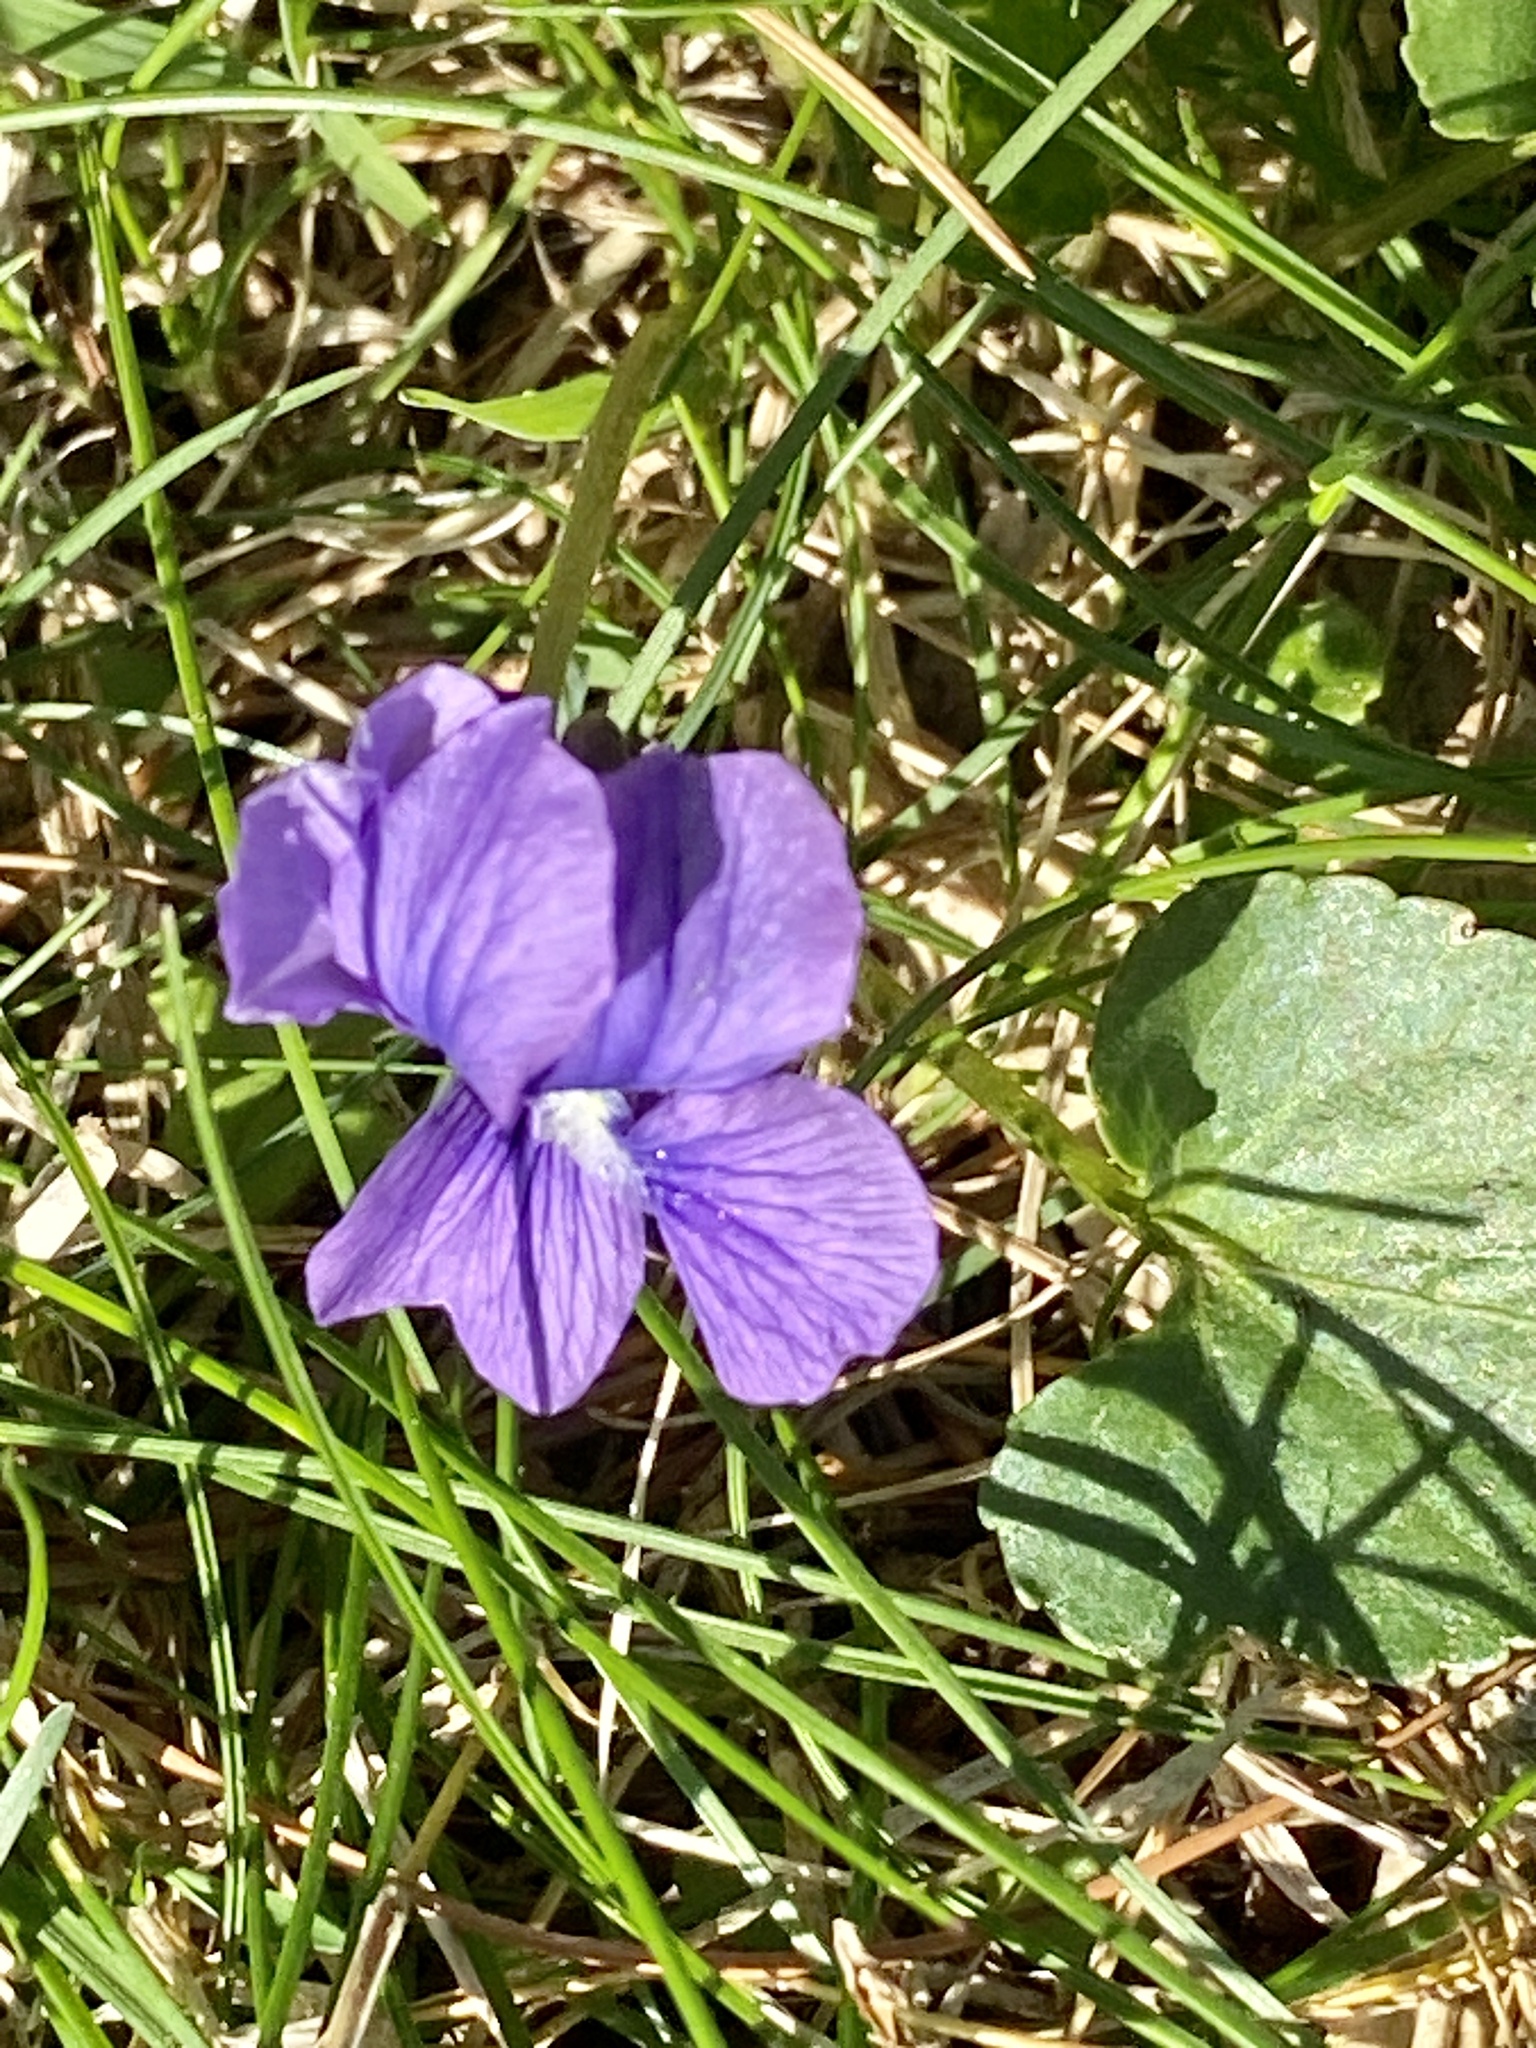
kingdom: Plantae
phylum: Tracheophyta
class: Magnoliopsida
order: Malpighiales
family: Violaceae
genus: Viola
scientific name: Viola sororia
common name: Dooryard violet
